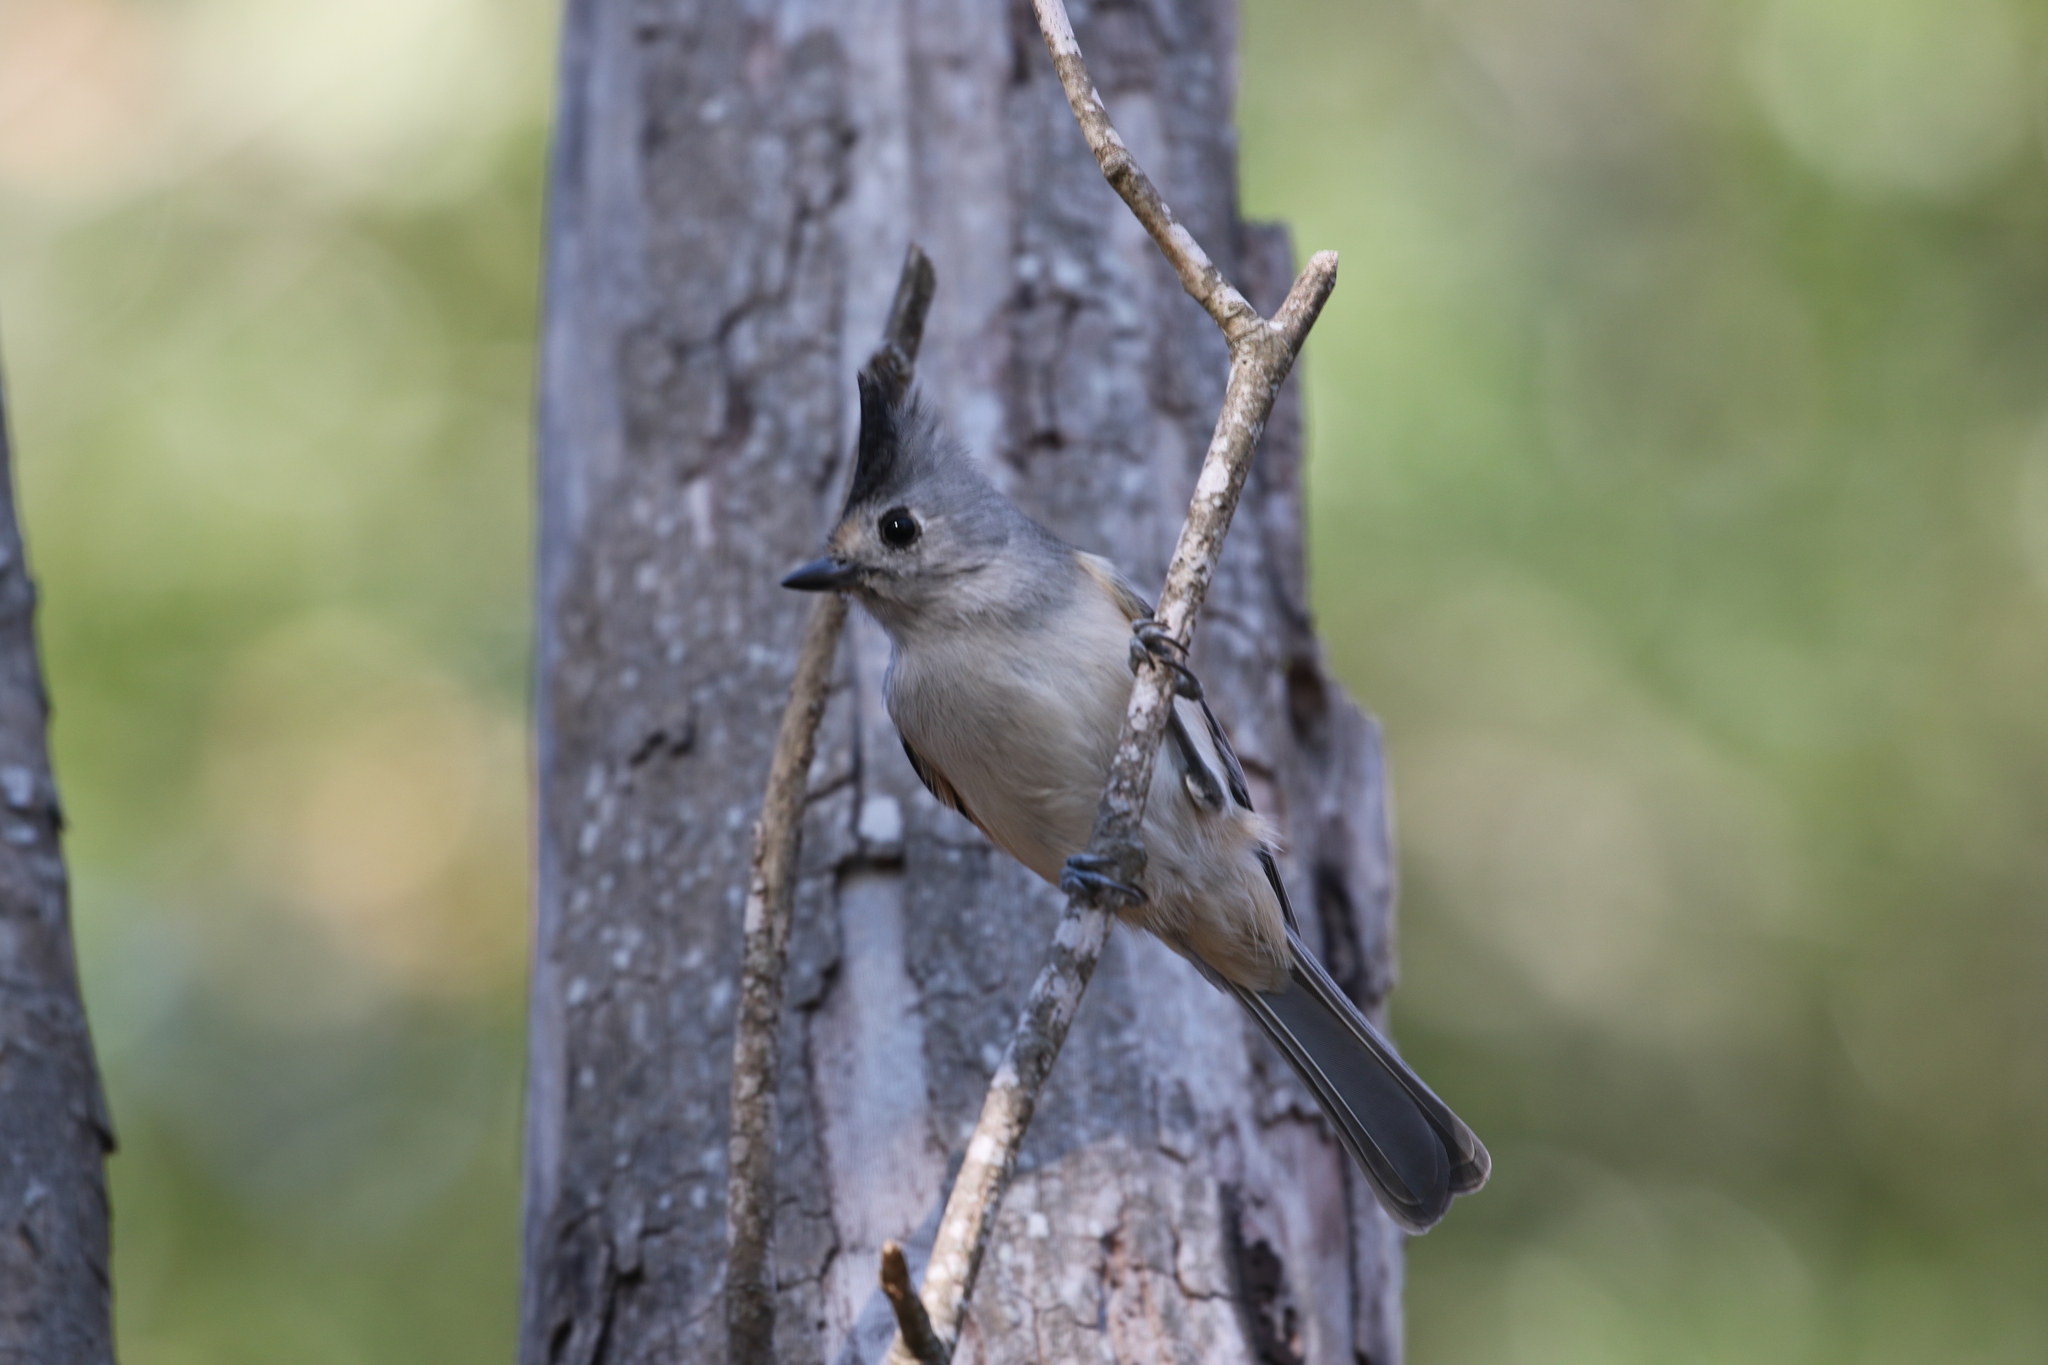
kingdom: Animalia
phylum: Chordata
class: Aves
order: Passeriformes
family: Paridae
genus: Baeolophus
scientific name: Baeolophus atricristatus
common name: Black-crested titmouse
